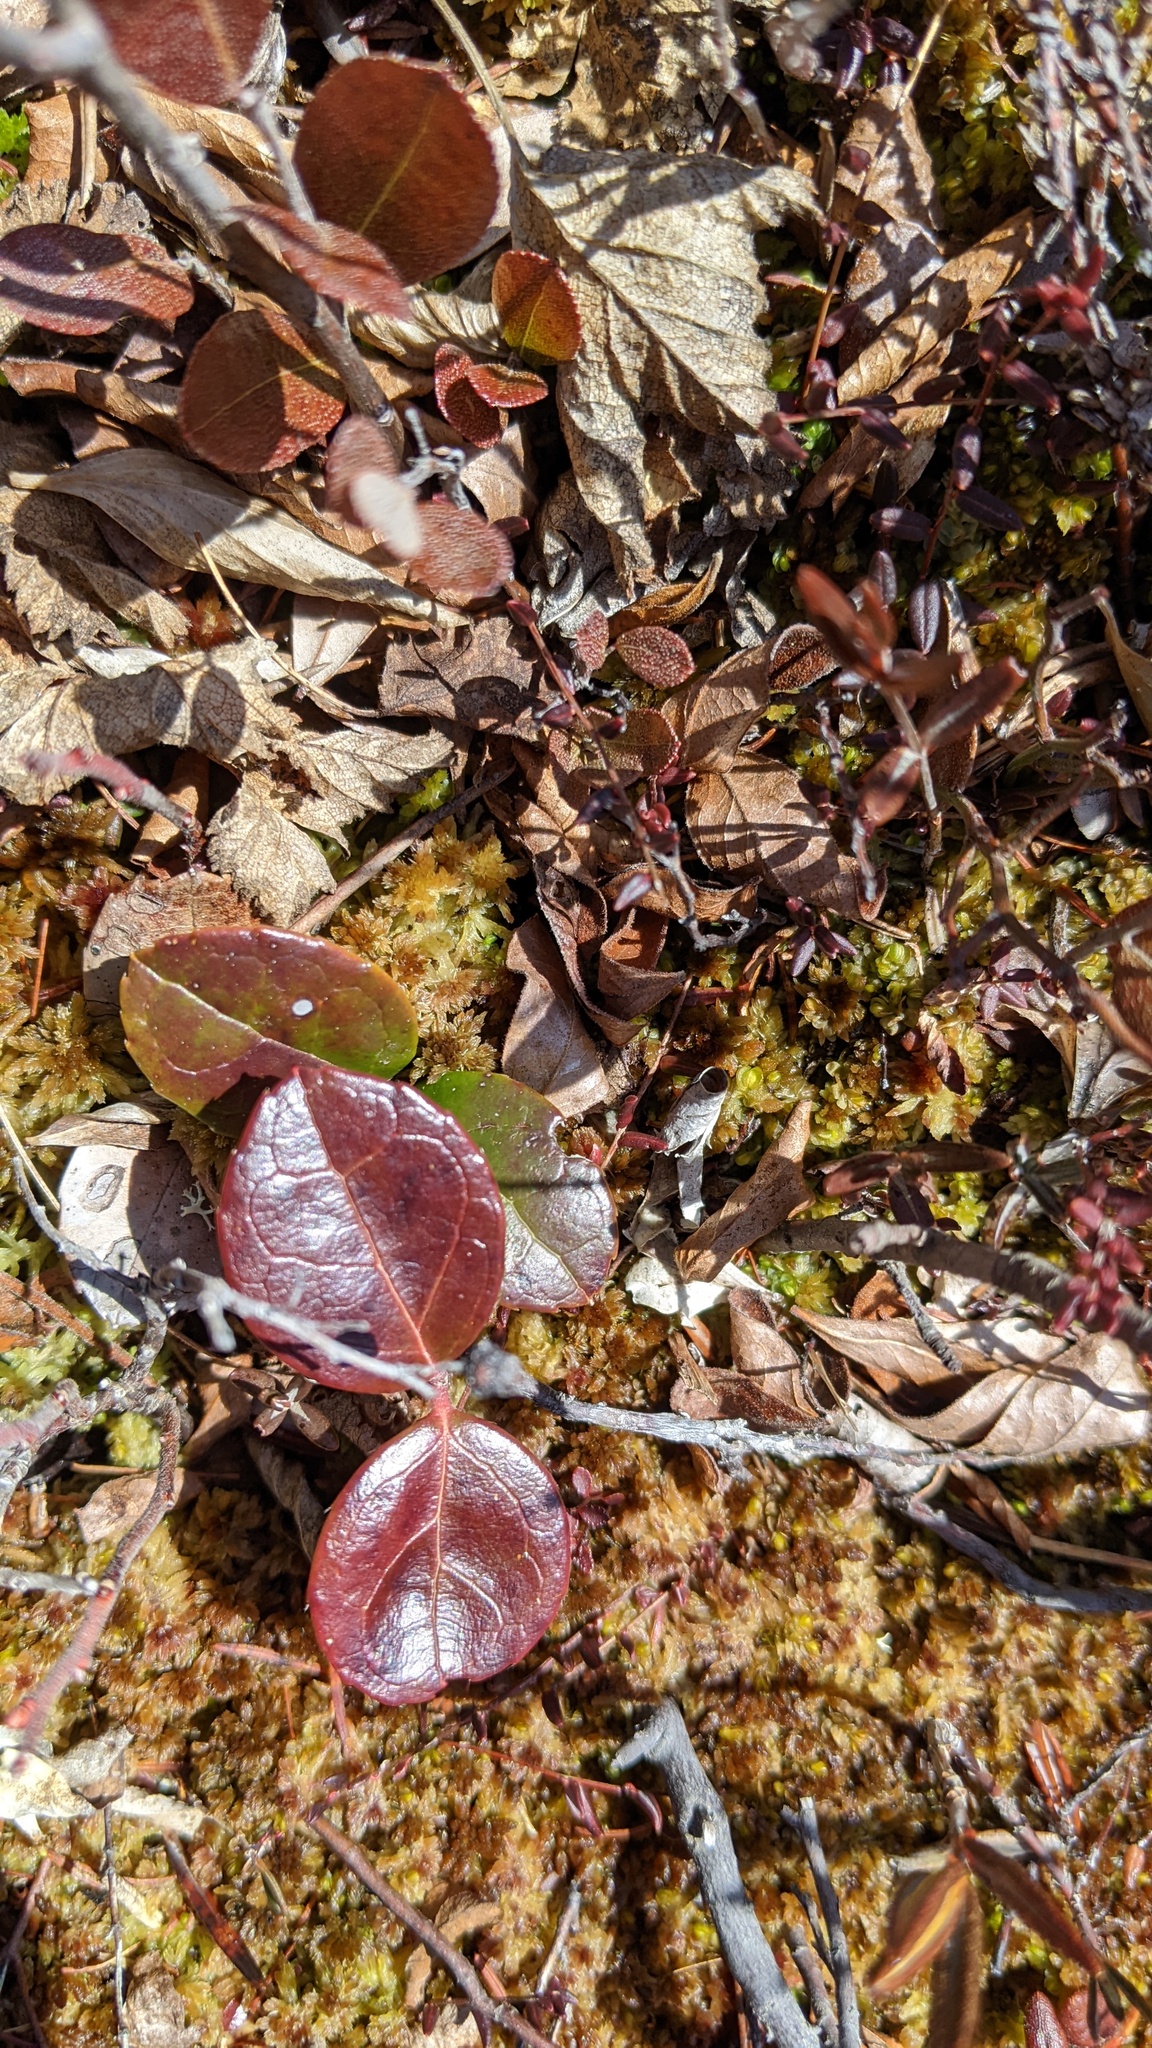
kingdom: Plantae
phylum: Tracheophyta
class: Magnoliopsida
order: Ericales
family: Ericaceae
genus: Gaultheria
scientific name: Gaultheria procumbens
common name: Checkerberry
